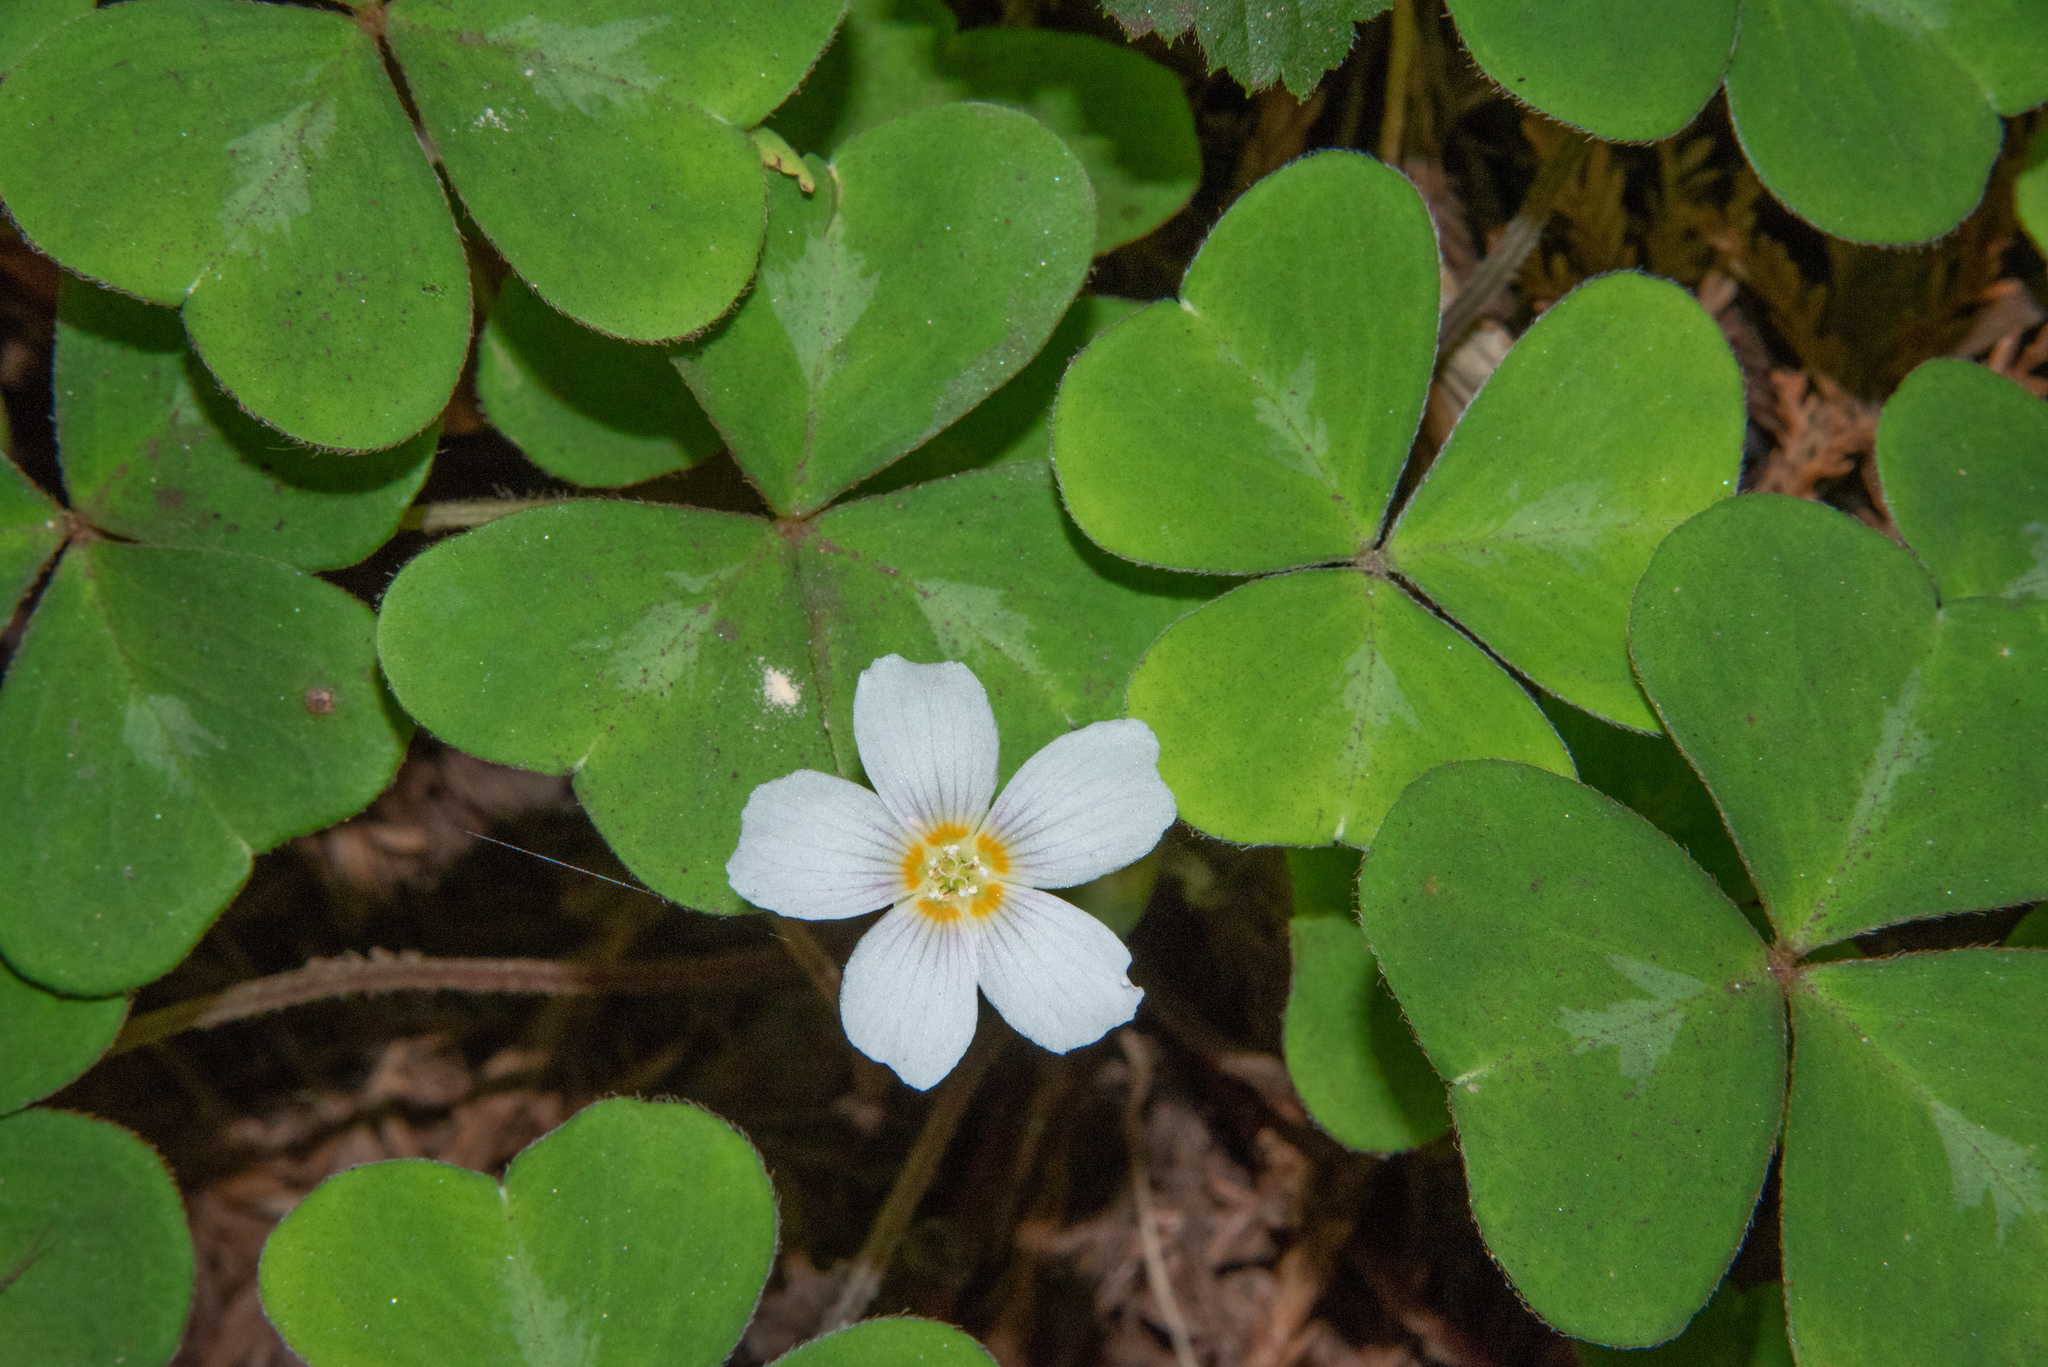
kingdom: Plantae
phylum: Tracheophyta
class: Magnoliopsida
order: Oxalidales
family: Oxalidaceae
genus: Oxalis
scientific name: Oxalis oregana
